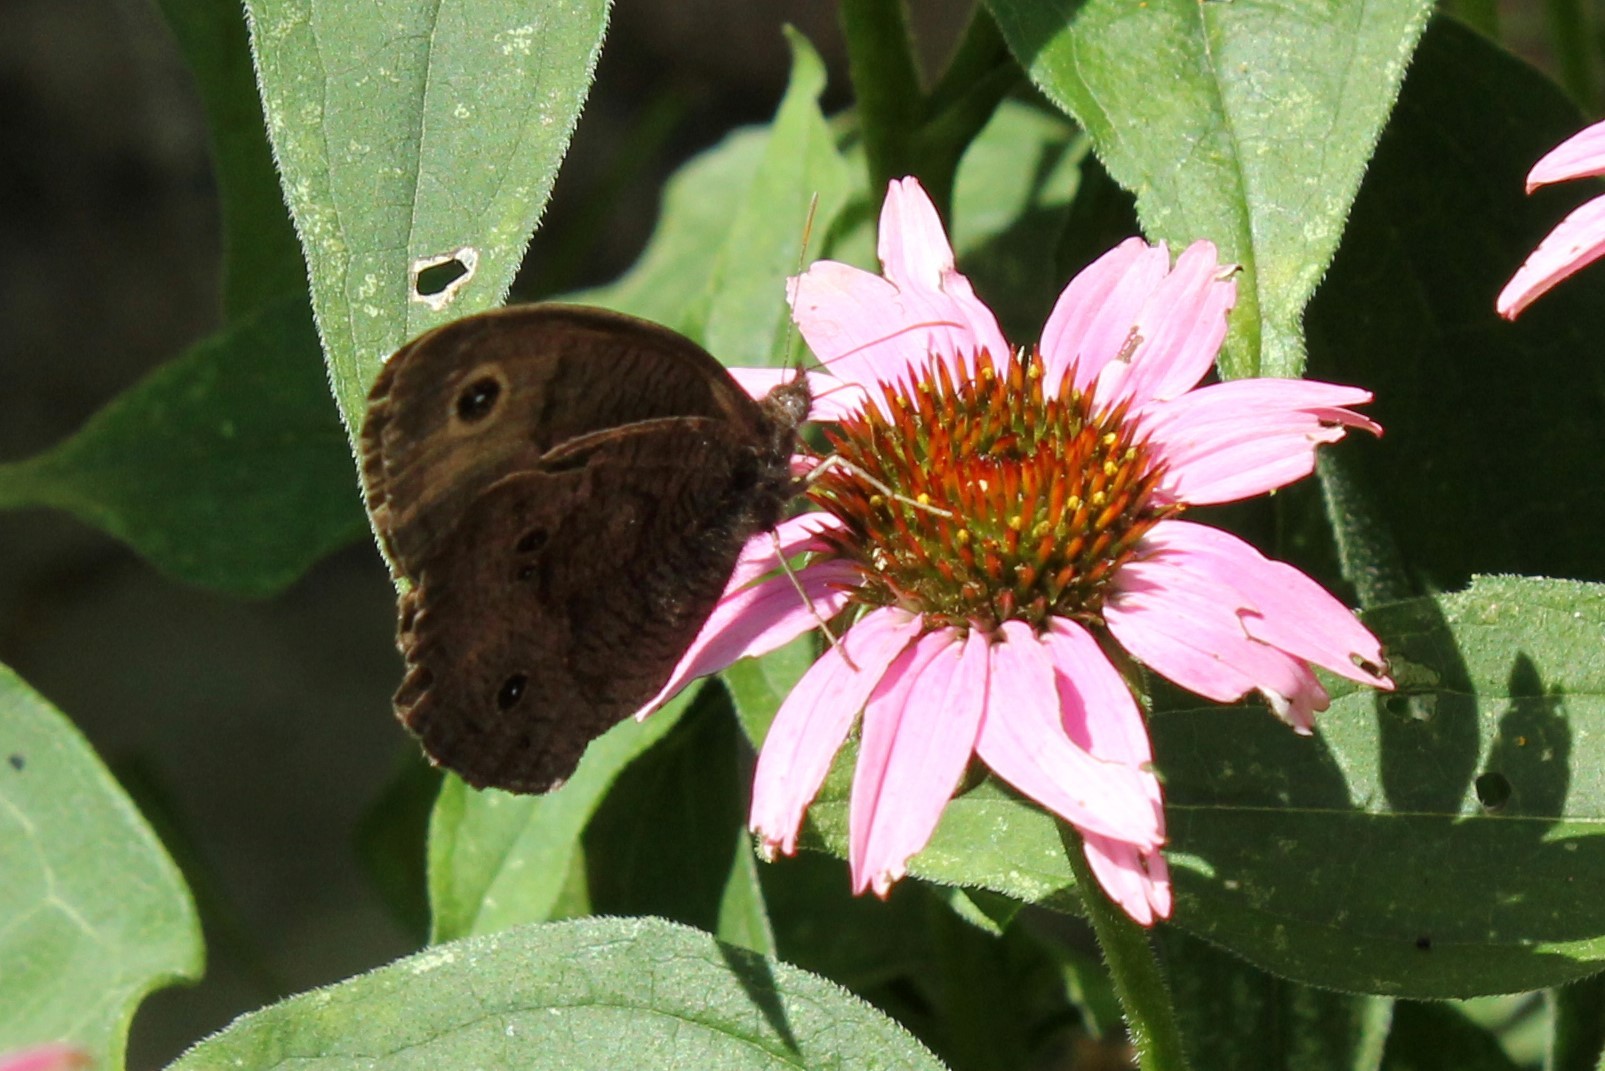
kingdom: Animalia
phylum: Arthropoda
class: Insecta
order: Lepidoptera
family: Nymphalidae
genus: Cercyonis
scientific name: Cercyonis pegala
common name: Common wood-nymph
